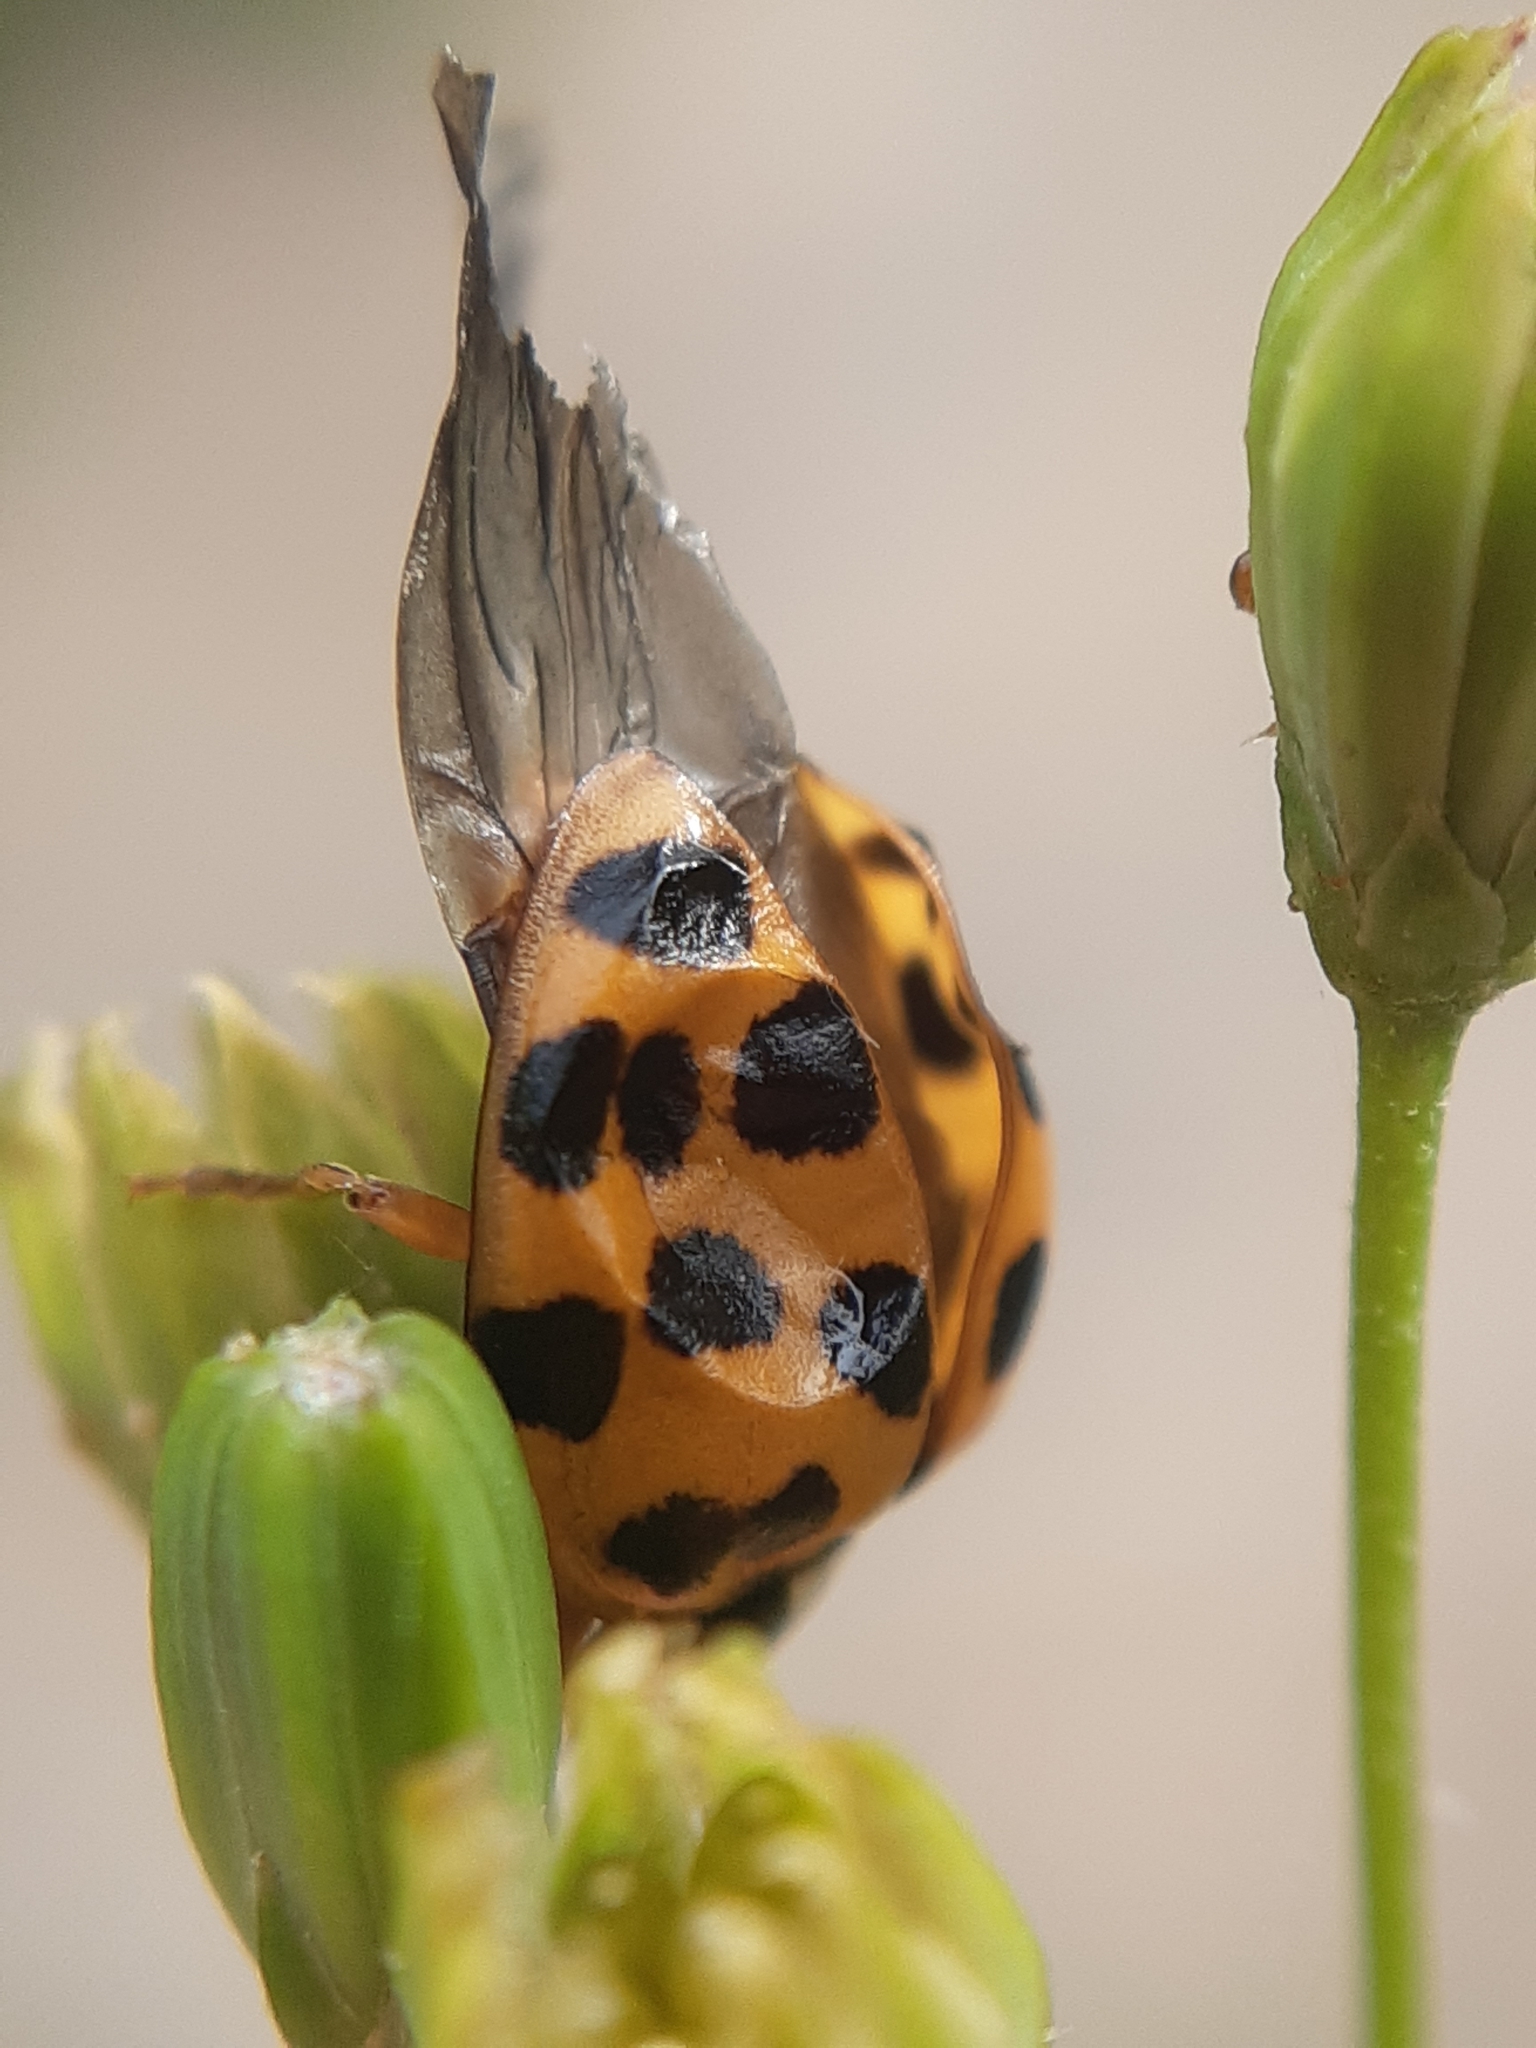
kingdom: Animalia
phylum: Arthropoda
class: Insecta
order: Coleoptera
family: Coccinellidae
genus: Harmonia
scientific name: Harmonia axyridis
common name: Harlequin ladybird
